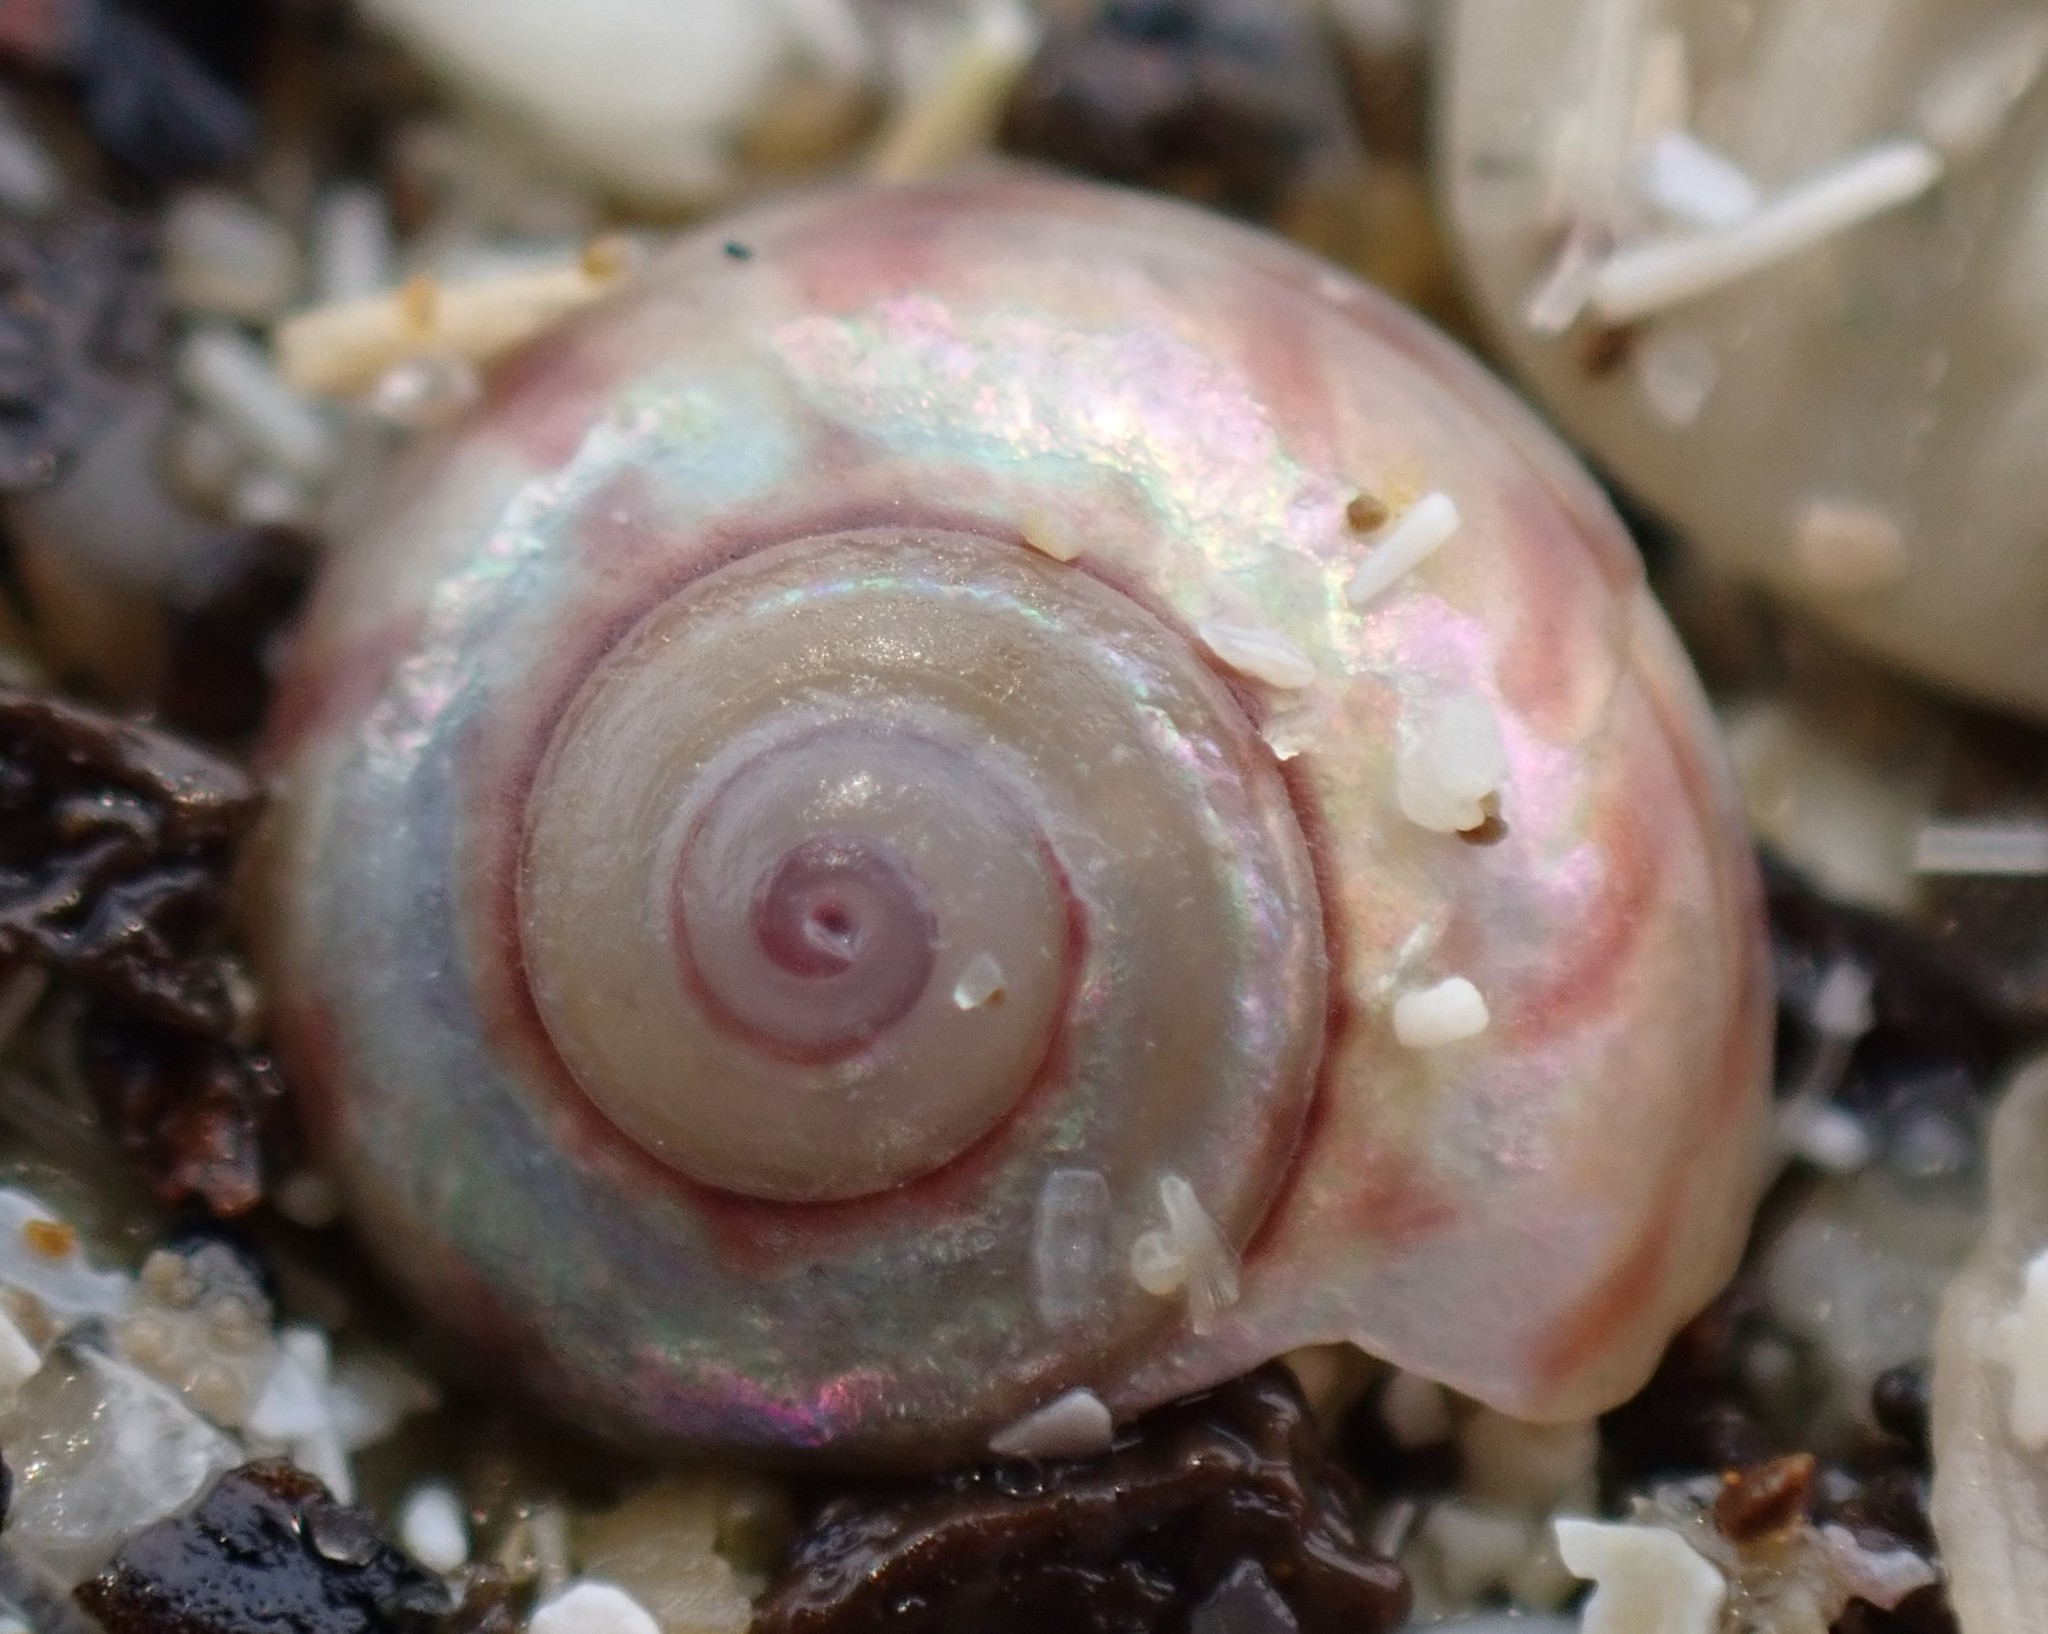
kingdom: Animalia
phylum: Mollusca
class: Gastropoda
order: Trochida
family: Trochidae
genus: Zethalia
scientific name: Zethalia zelandica
